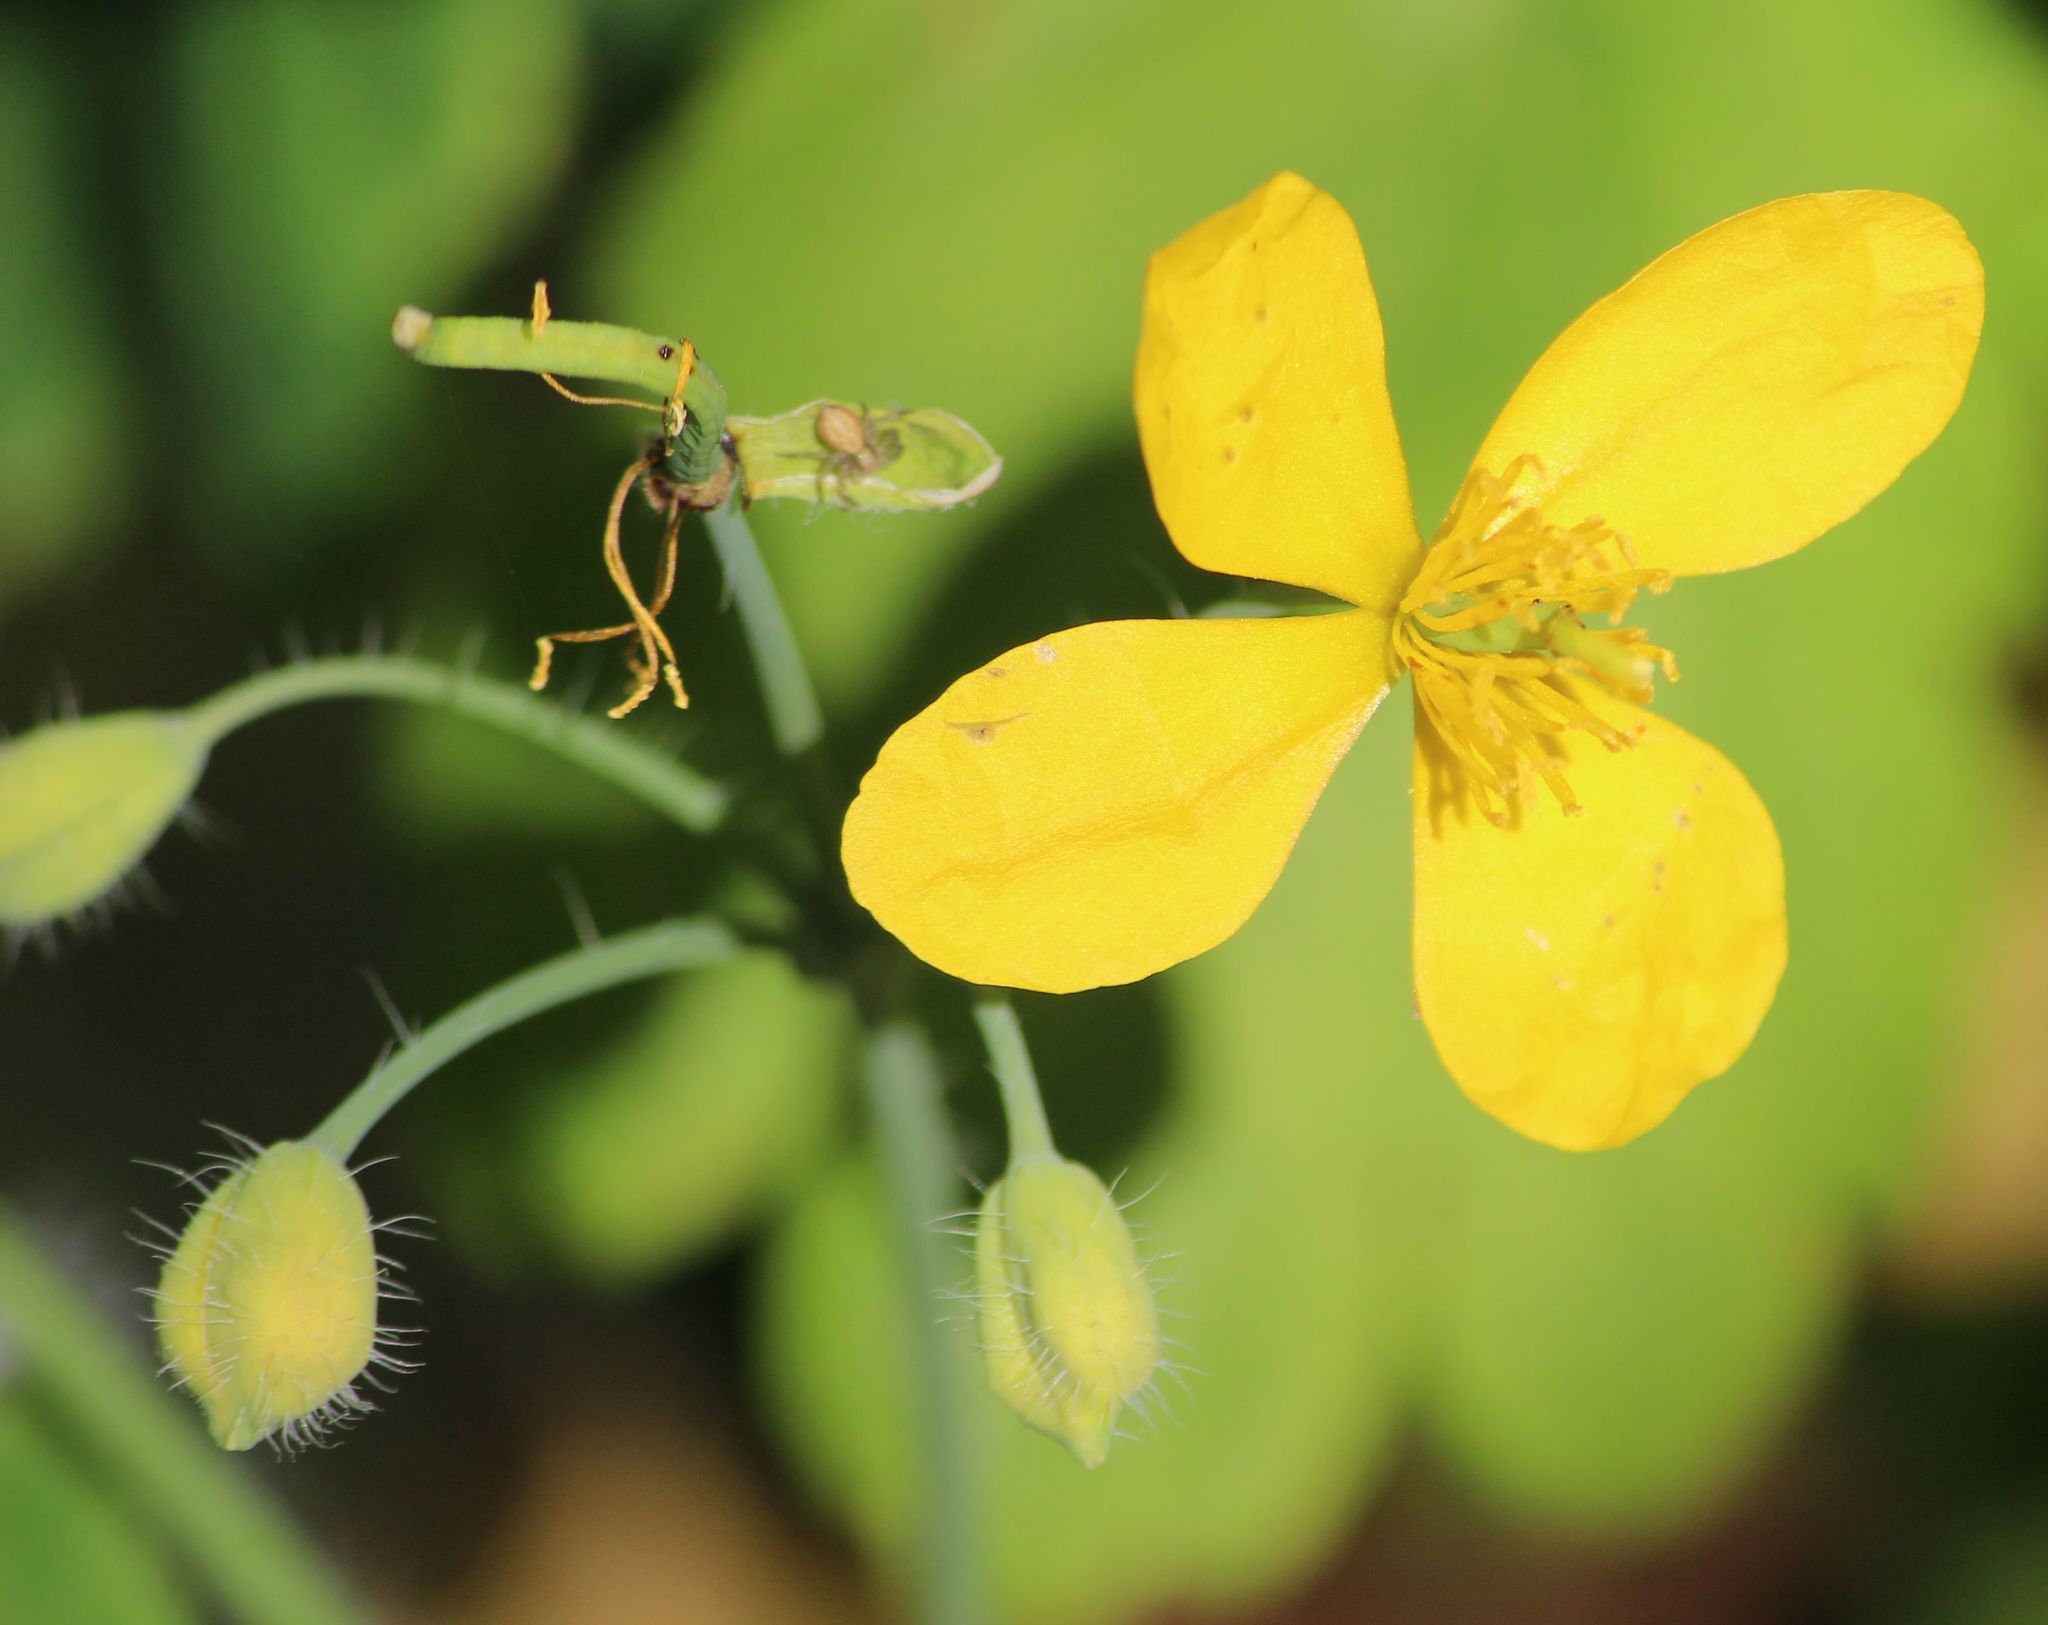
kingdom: Plantae
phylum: Tracheophyta
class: Magnoliopsida
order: Ranunculales
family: Papaveraceae
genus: Chelidonium
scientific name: Chelidonium majus
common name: Greater celandine
